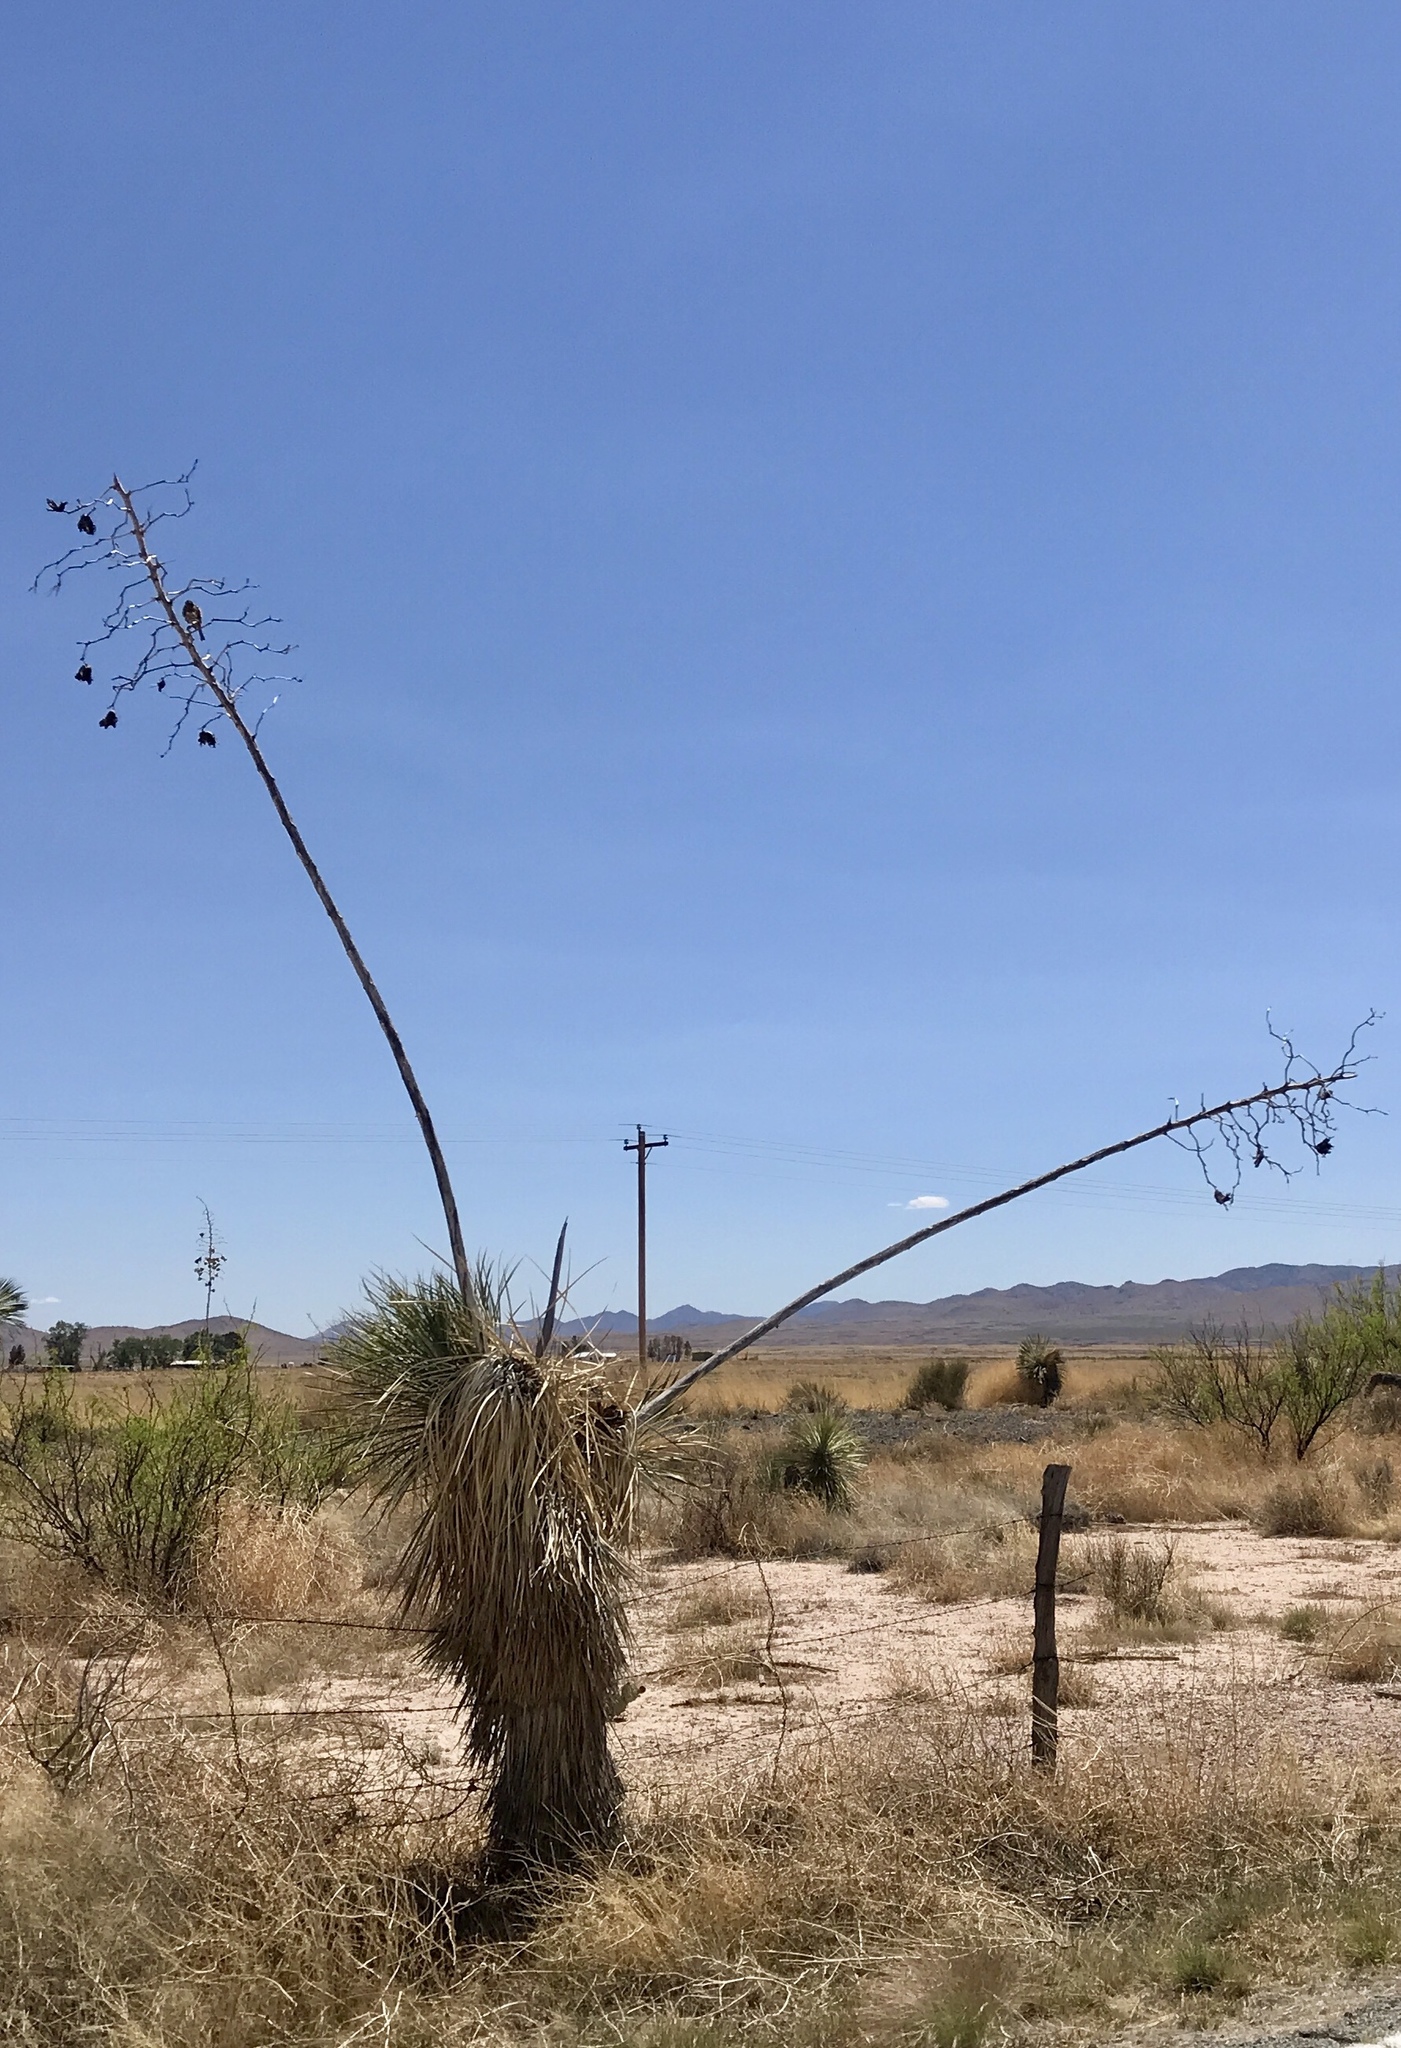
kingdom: Plantae
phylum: Tracheophyta
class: Liliopsida
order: Asparagales
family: Asparagaceae
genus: Yucca
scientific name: Yucca elata
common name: Palmella
